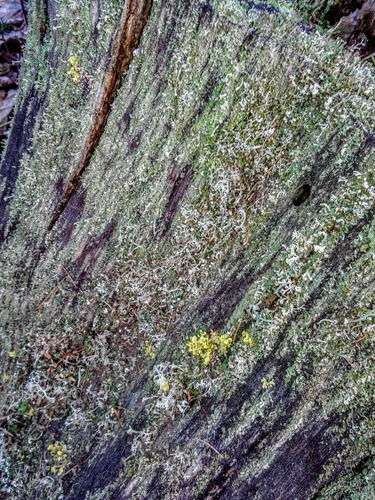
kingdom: Fungi
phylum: Ascomycota
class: Lecanoromycetes
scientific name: Lecanoromycetes
